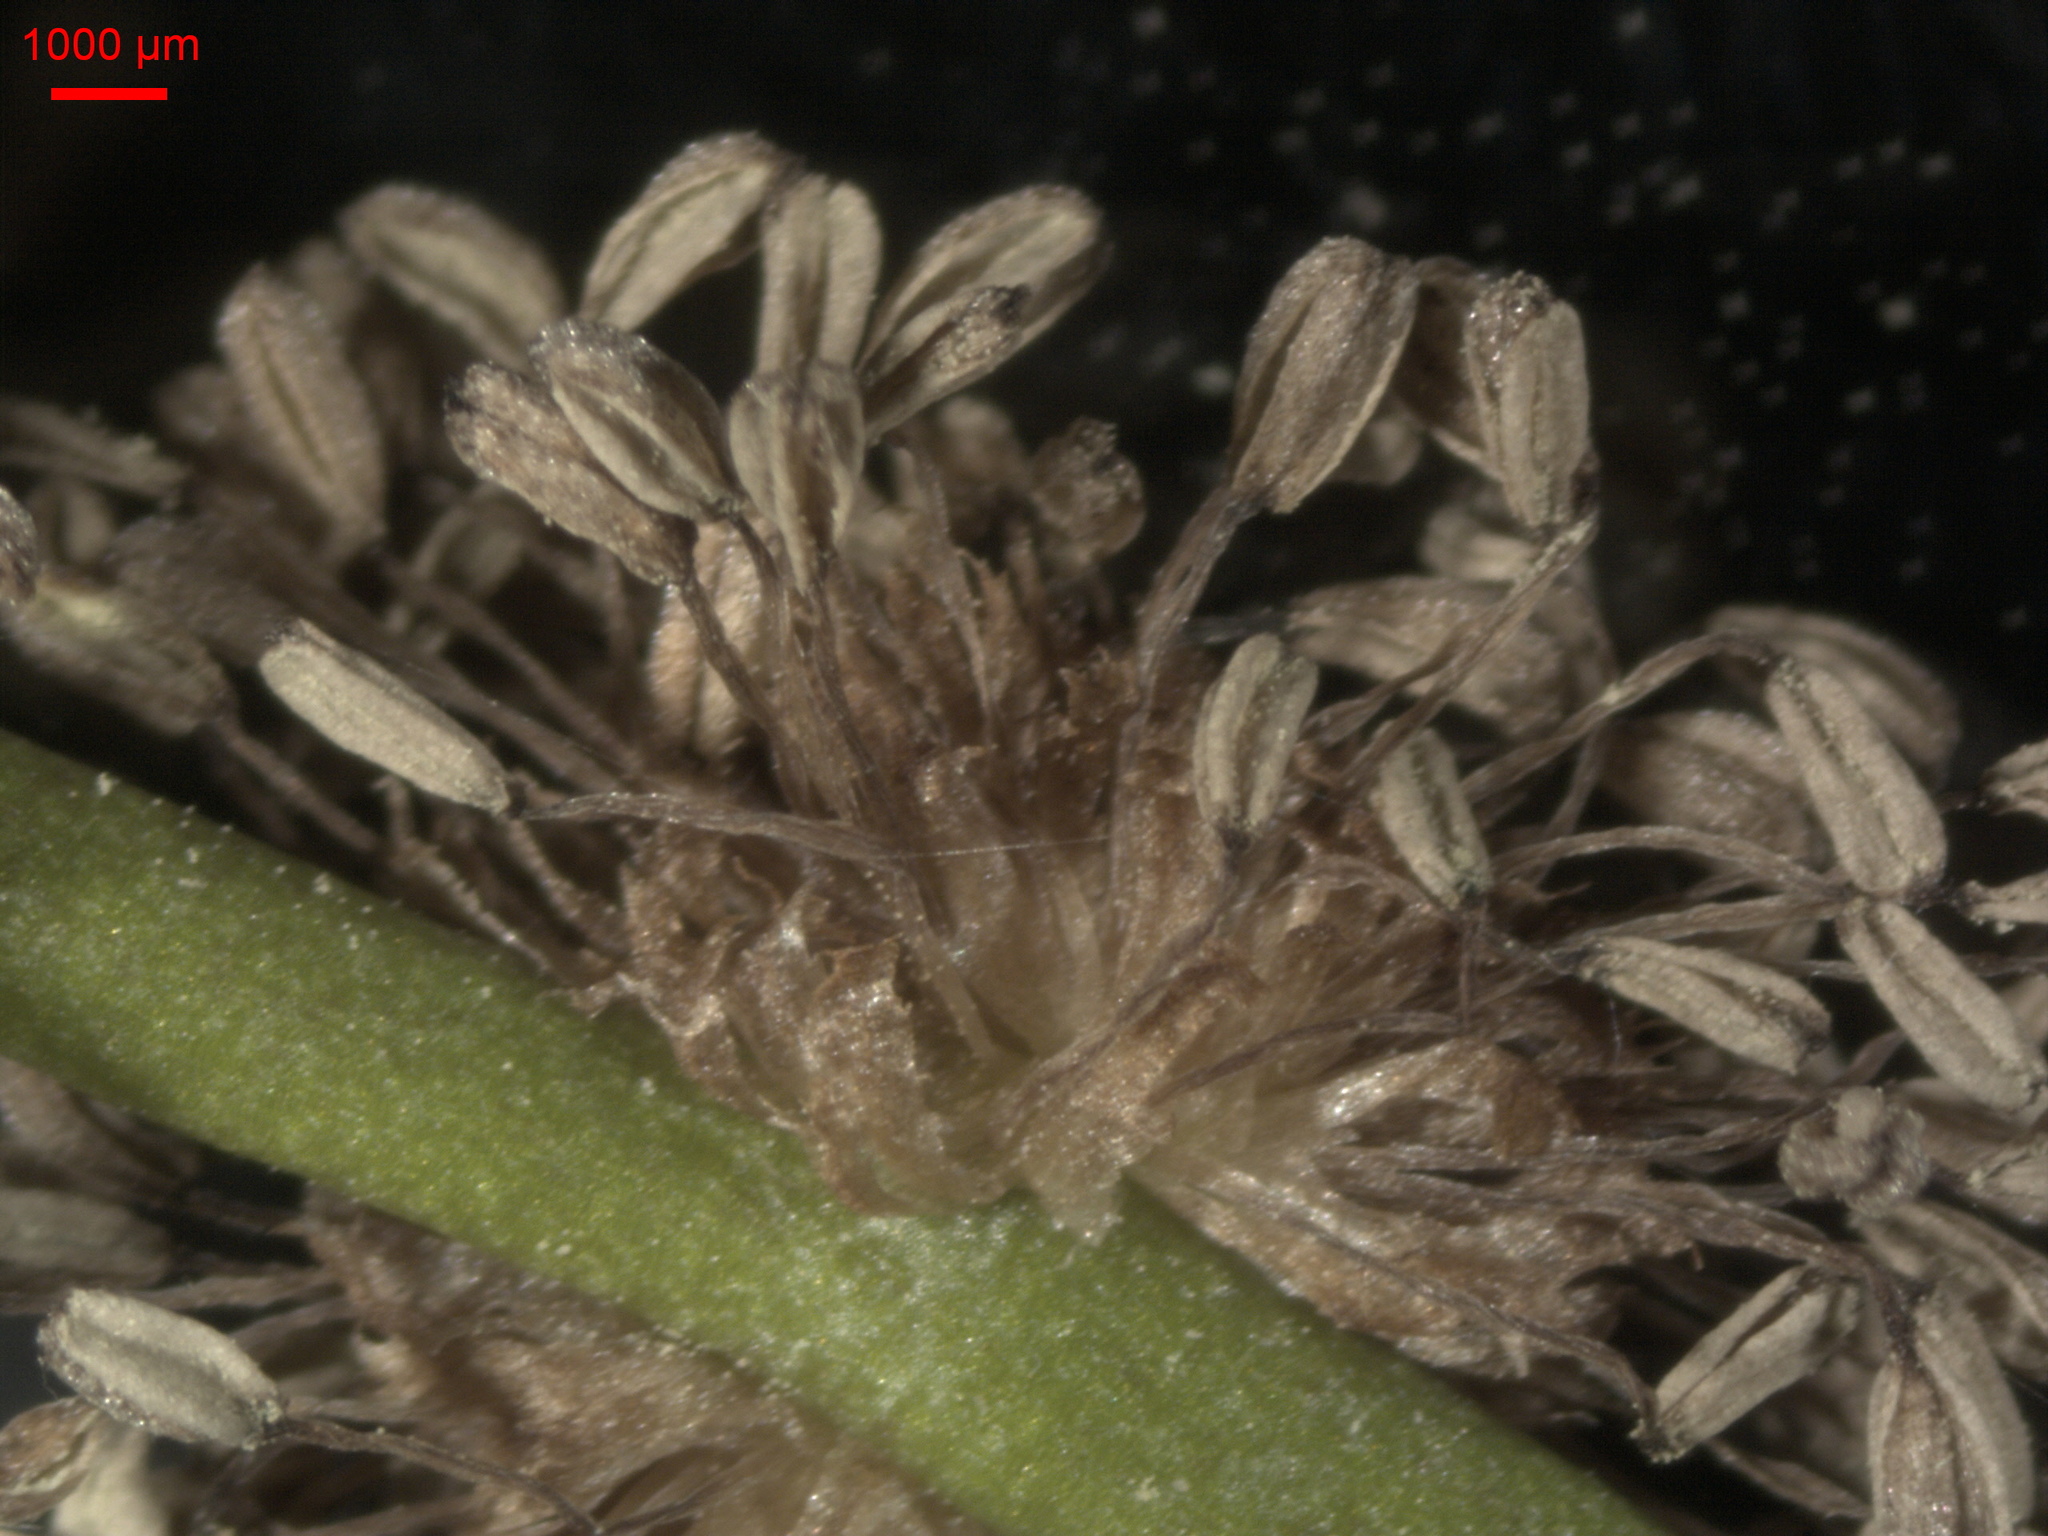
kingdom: Plantae
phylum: Tracheophyta
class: Liliopsida
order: Poales
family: Typhaceae
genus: Sparganium
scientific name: Sparganium emersum
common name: Unbranched bur-reed
